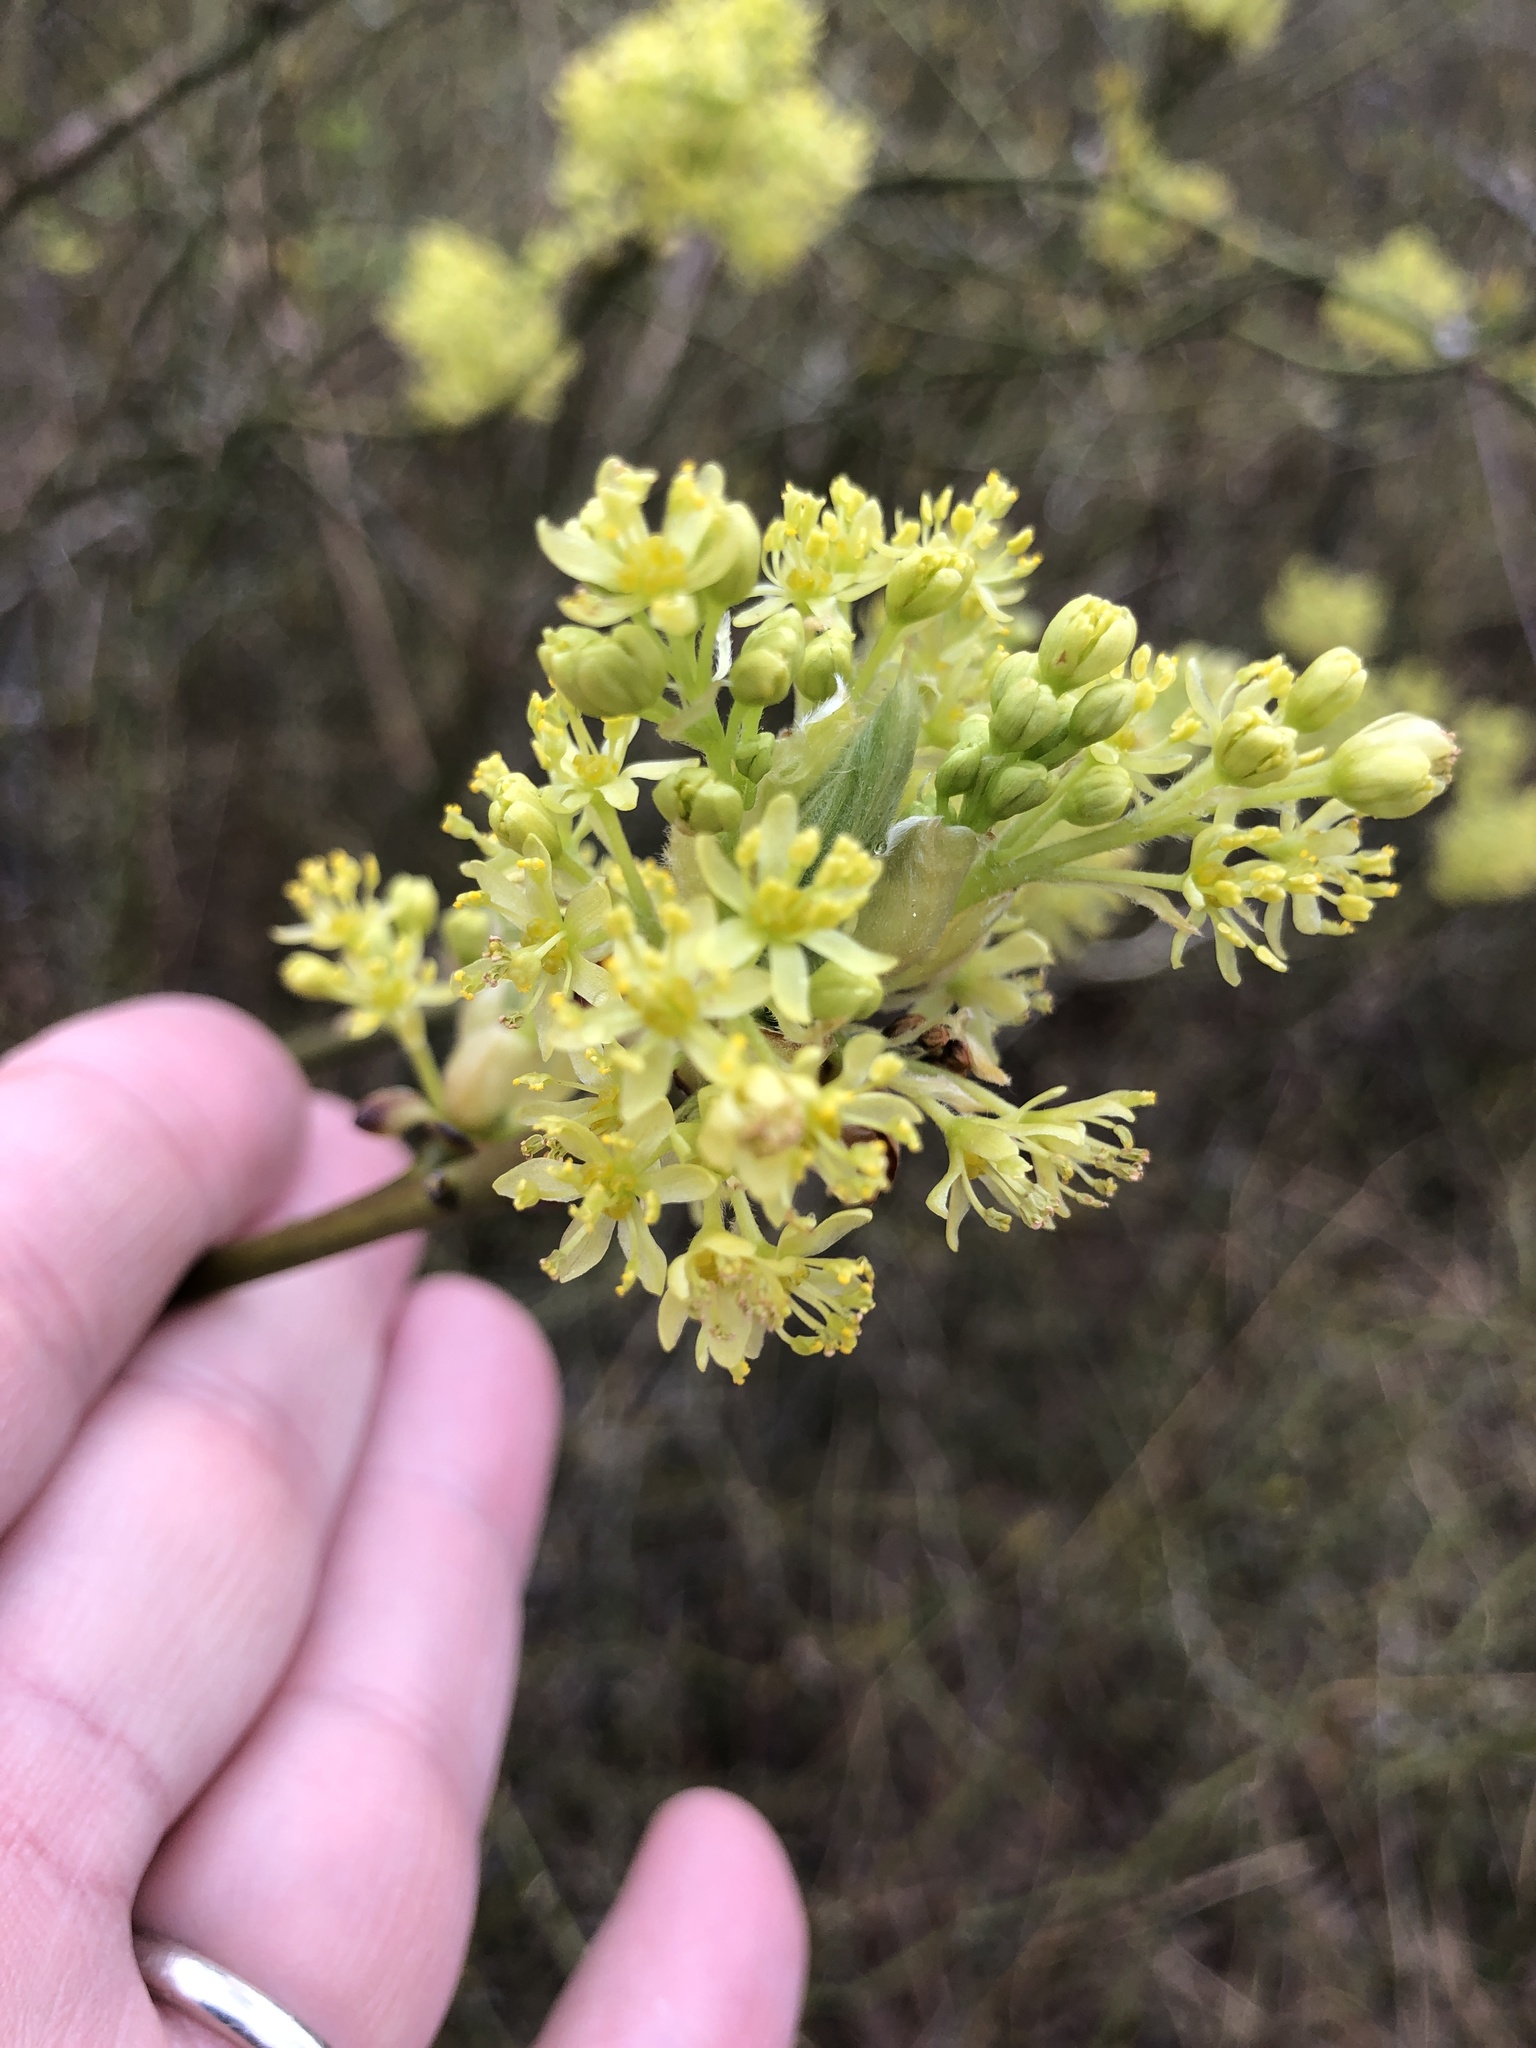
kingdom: Plantae
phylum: Tracheophyta
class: Magnoliopsida
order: Laurales
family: Lauraceae
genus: Sassafras
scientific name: Sassafras albidum
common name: Sassafras
